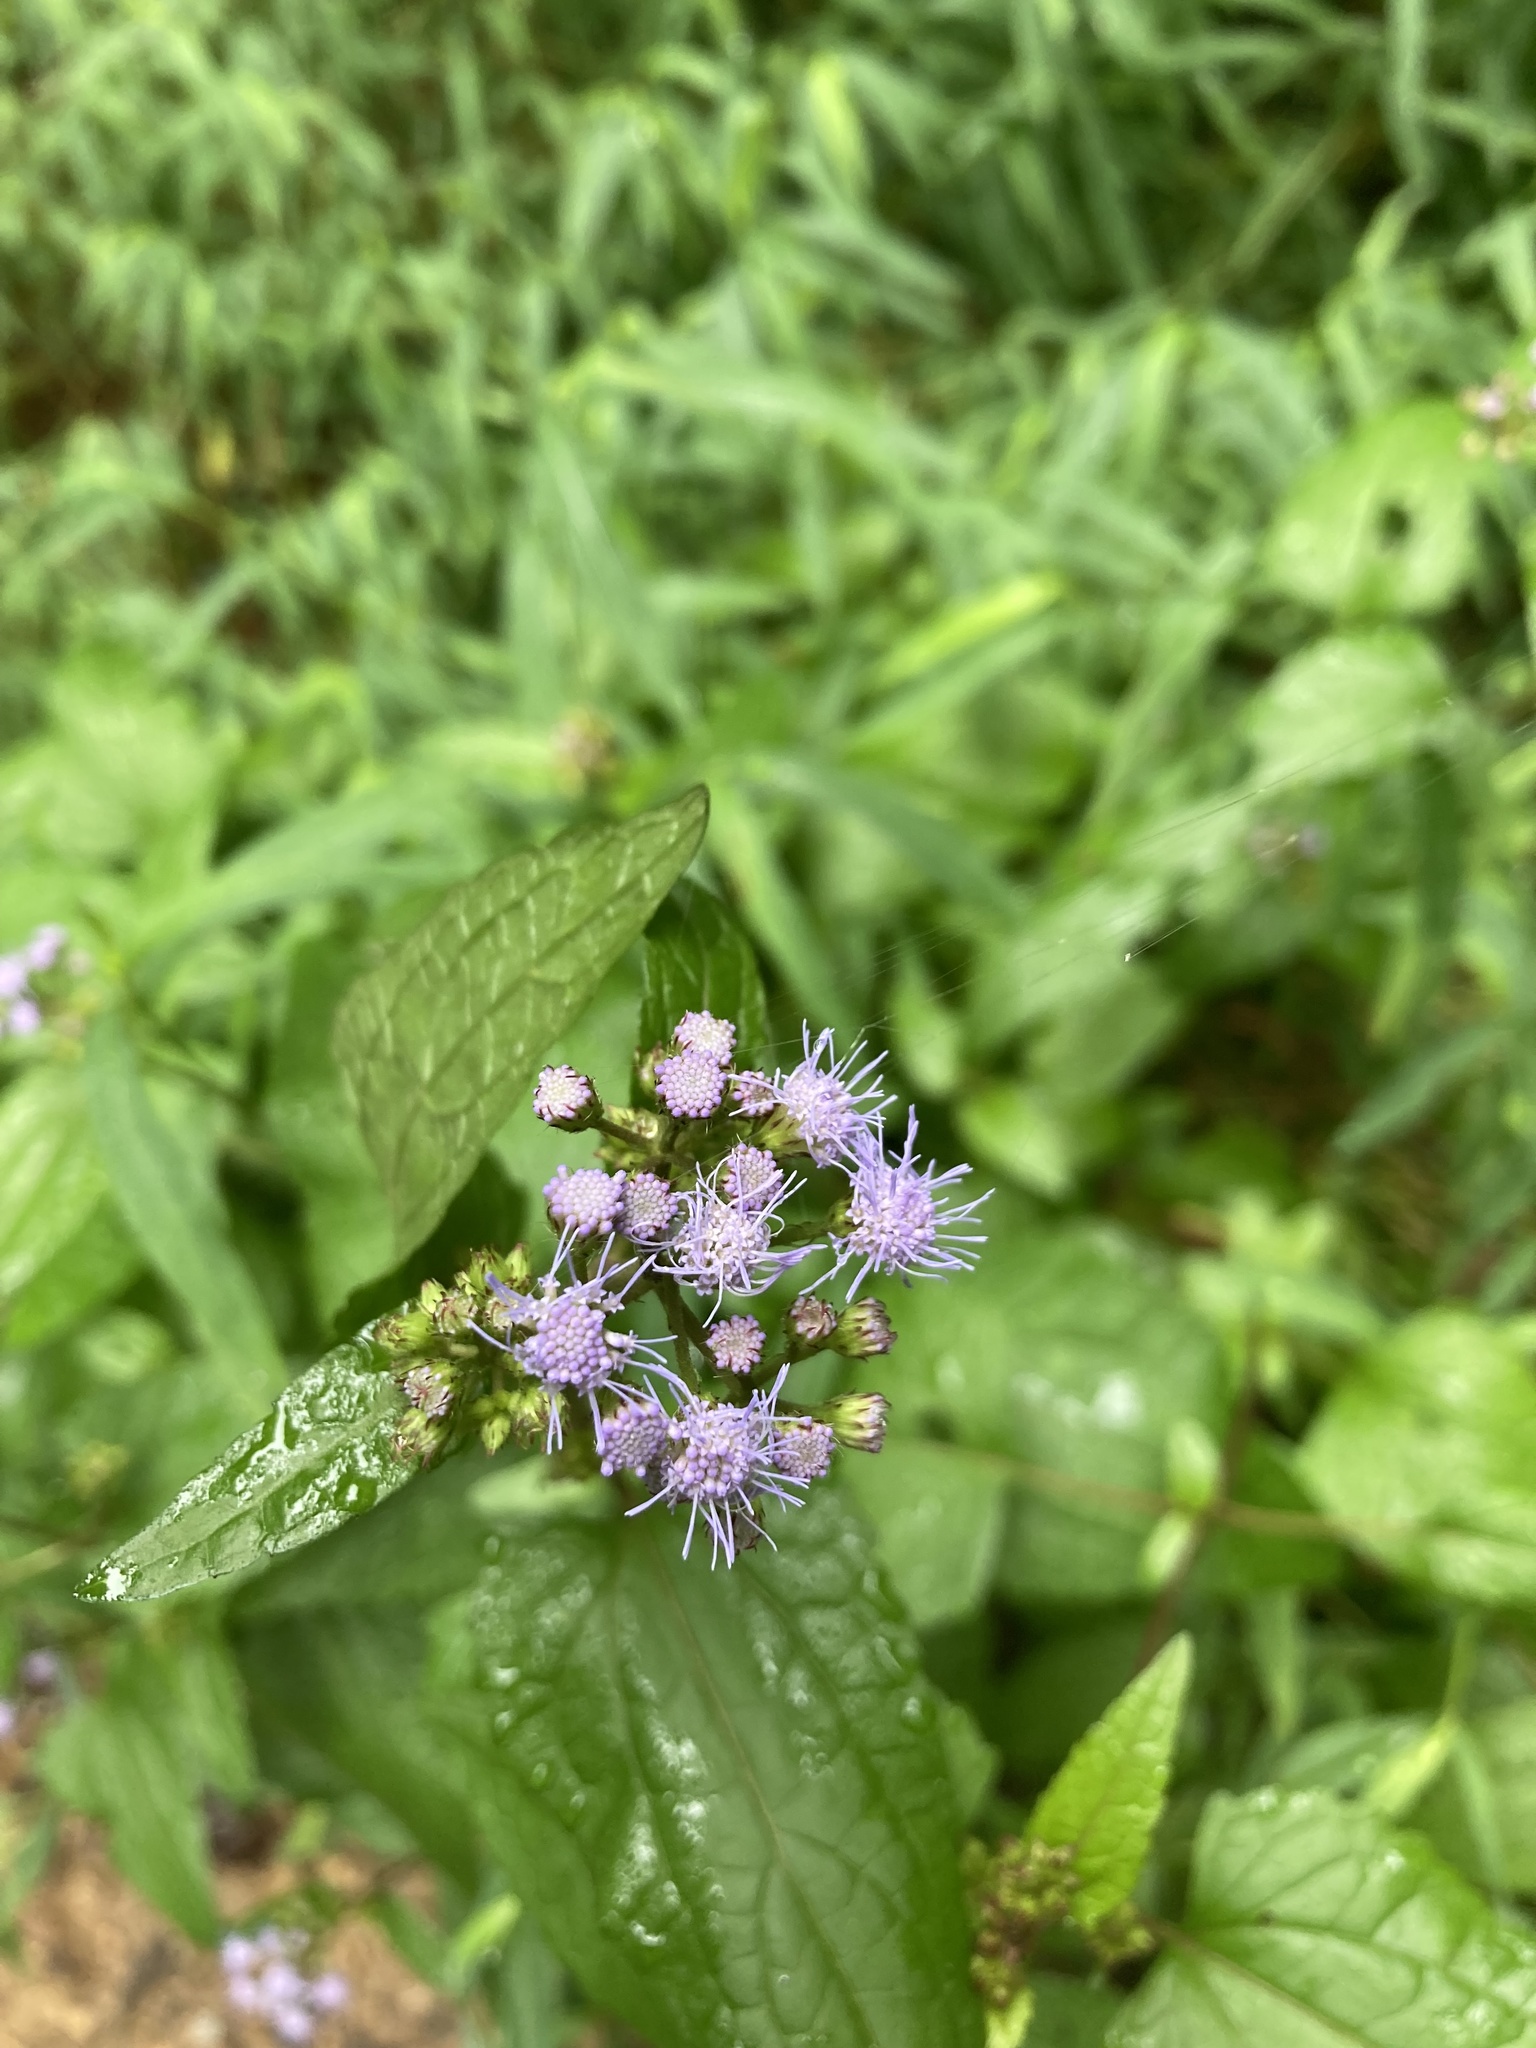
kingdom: Plantae
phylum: Tracheophyta
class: Magnoliopsida
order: Asterales
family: Asteraceae
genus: Conoclinium
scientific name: Conoclinium coelestinum
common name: Blue mistflower
